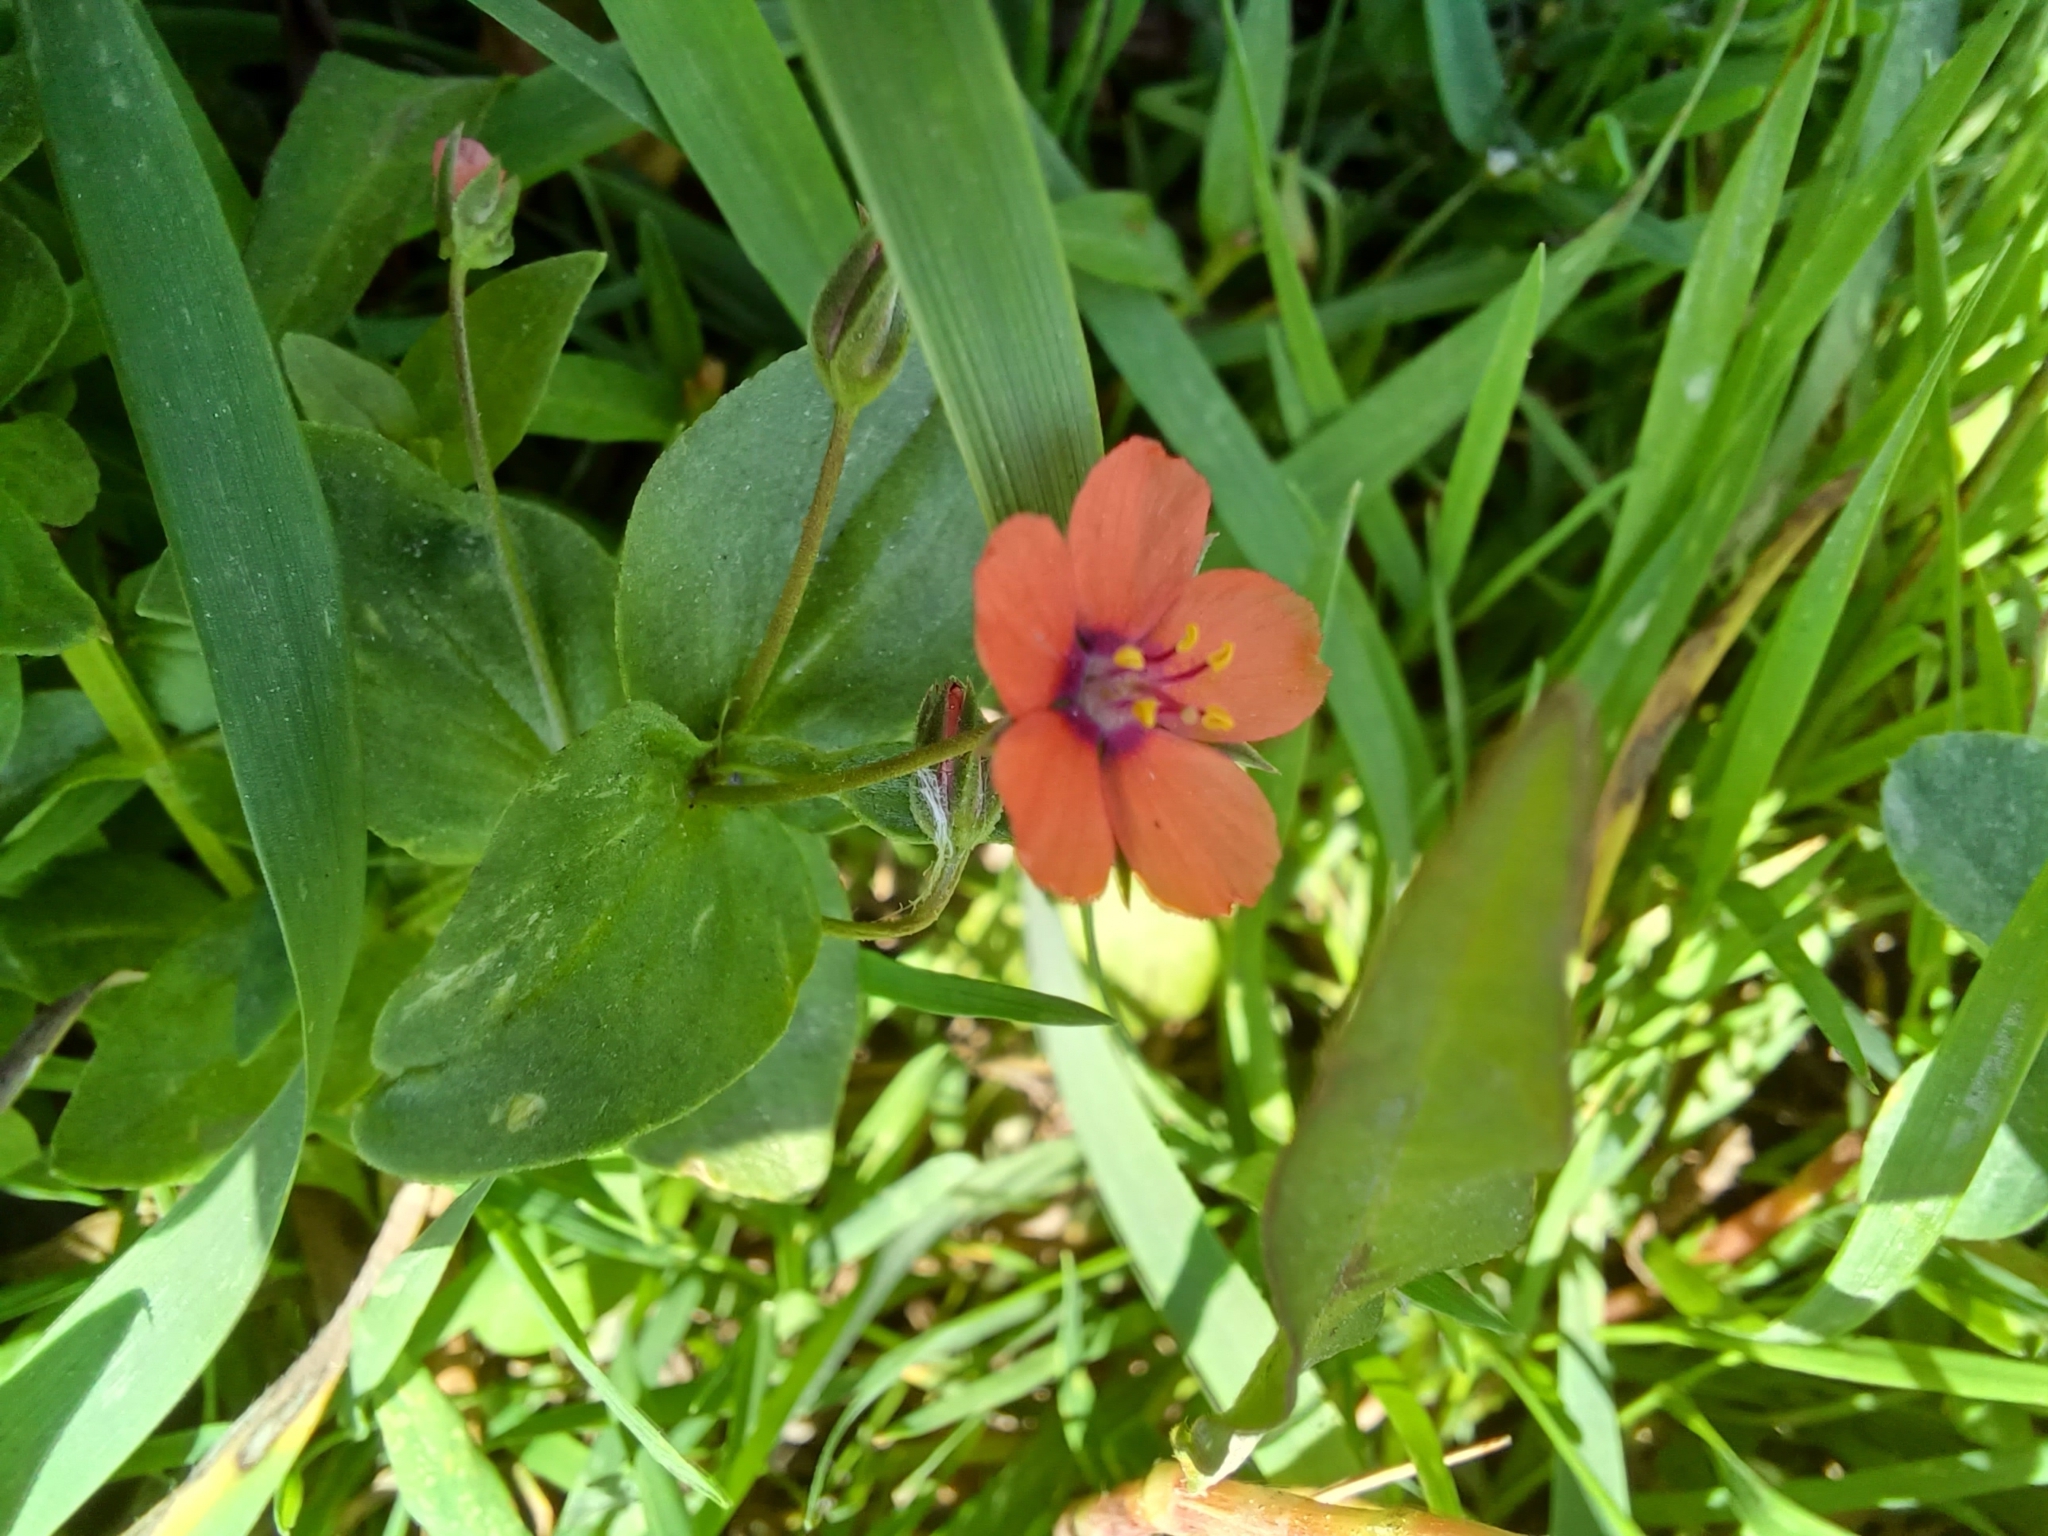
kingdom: Plantae
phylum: Tracheophyta
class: Magnoliopsida
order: Ericales
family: Primulaceae
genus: Lysimachia
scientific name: Lysimachia arvensis
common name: Scarlet pimpernel
